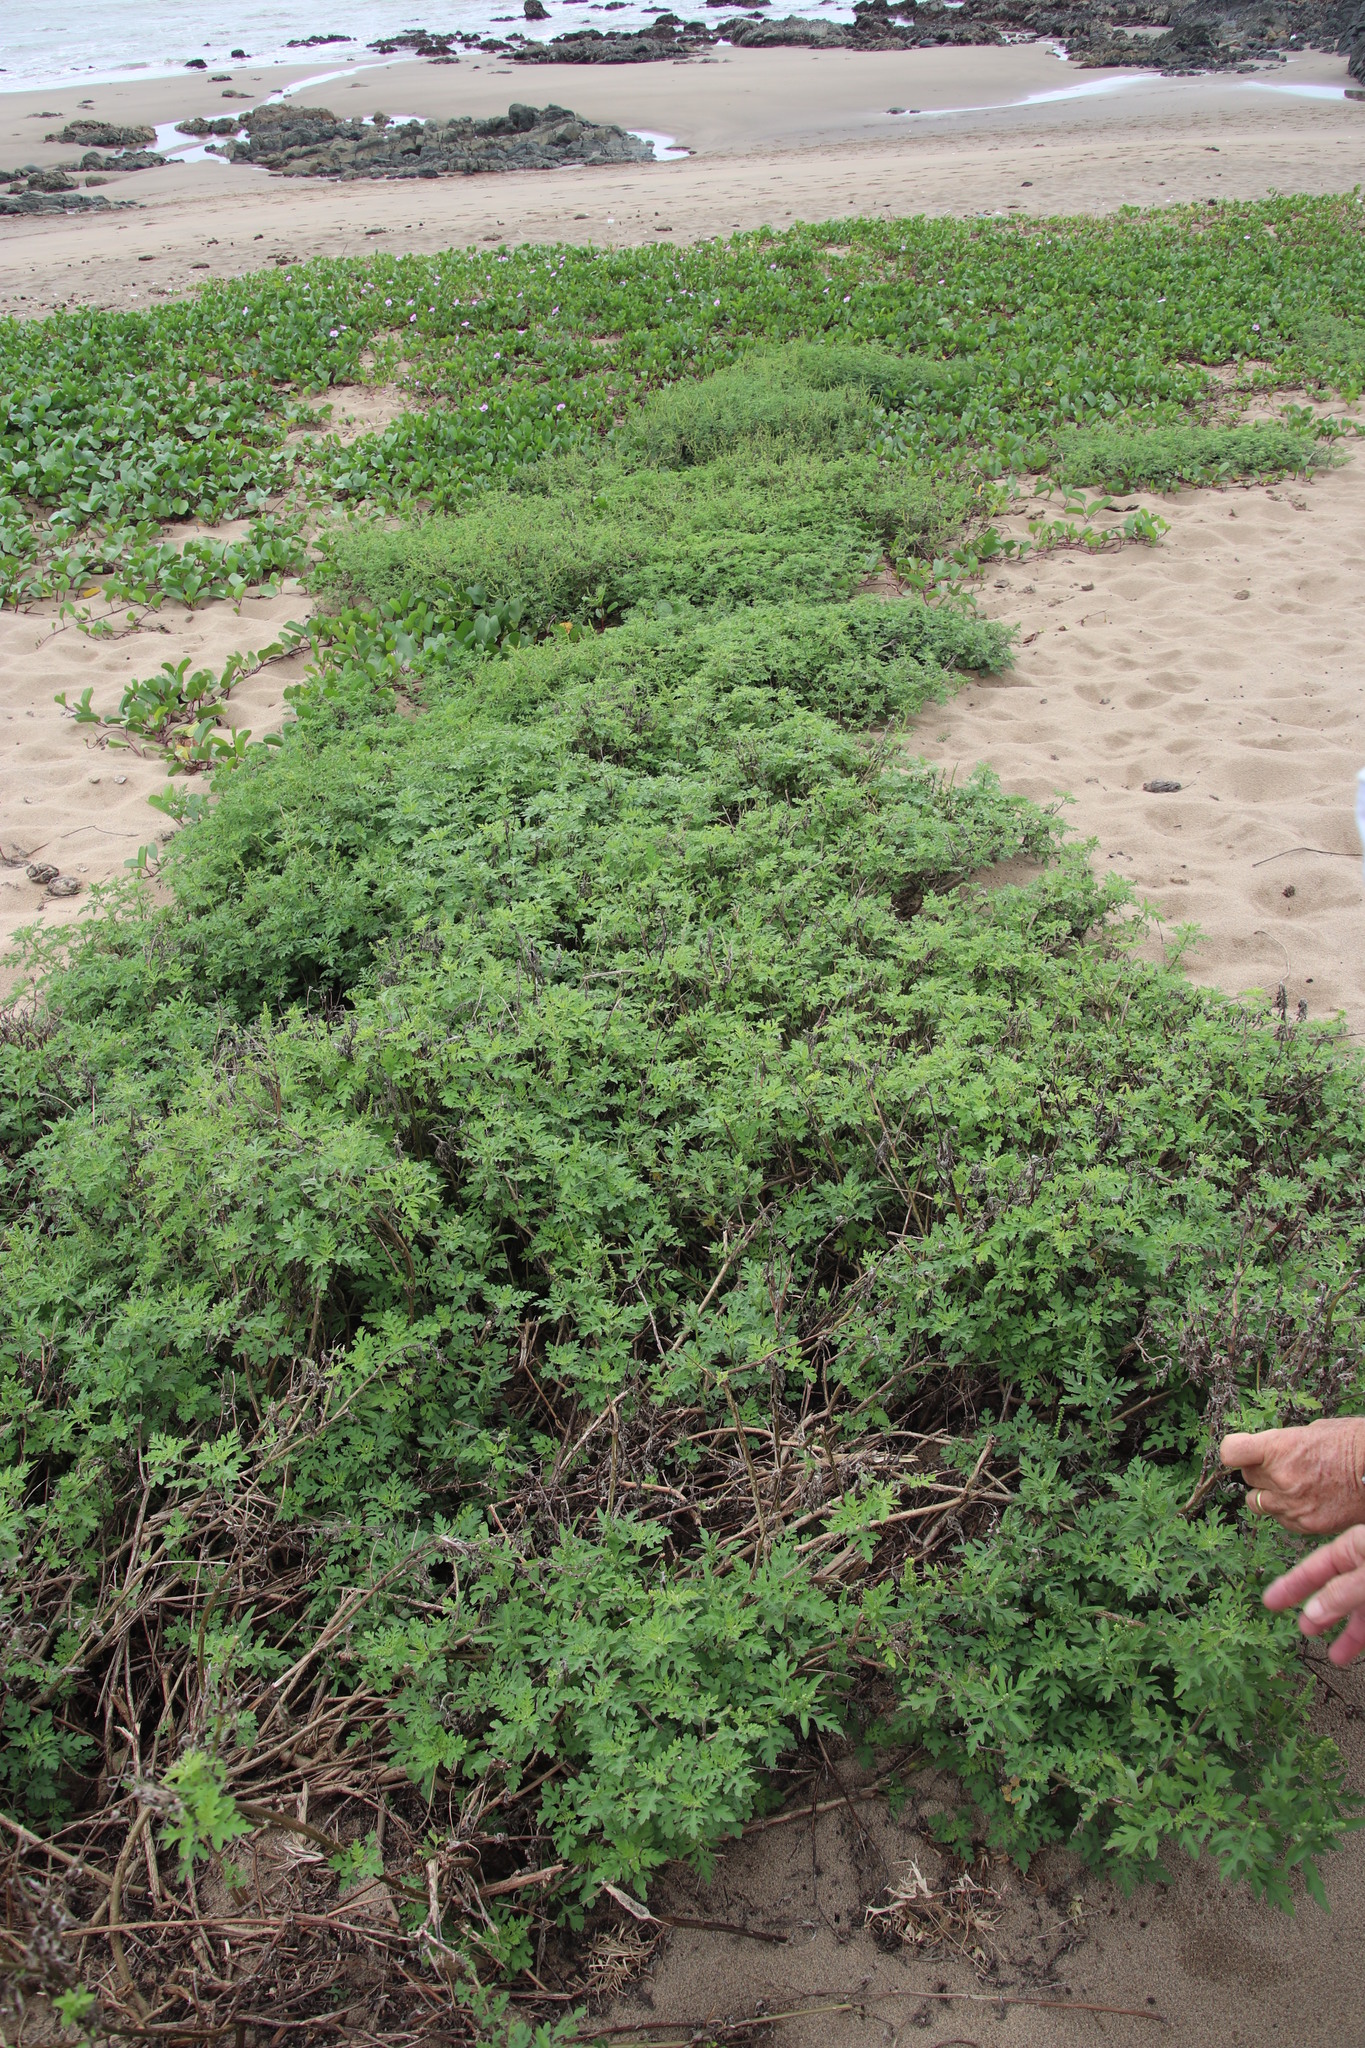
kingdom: Plantae
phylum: Tracheophyta
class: Magnoliopsida
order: Asterales
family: Asteraceae
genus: Ambrosia
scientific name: Ambrosia artemisiifolia
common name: Annual ragweed
